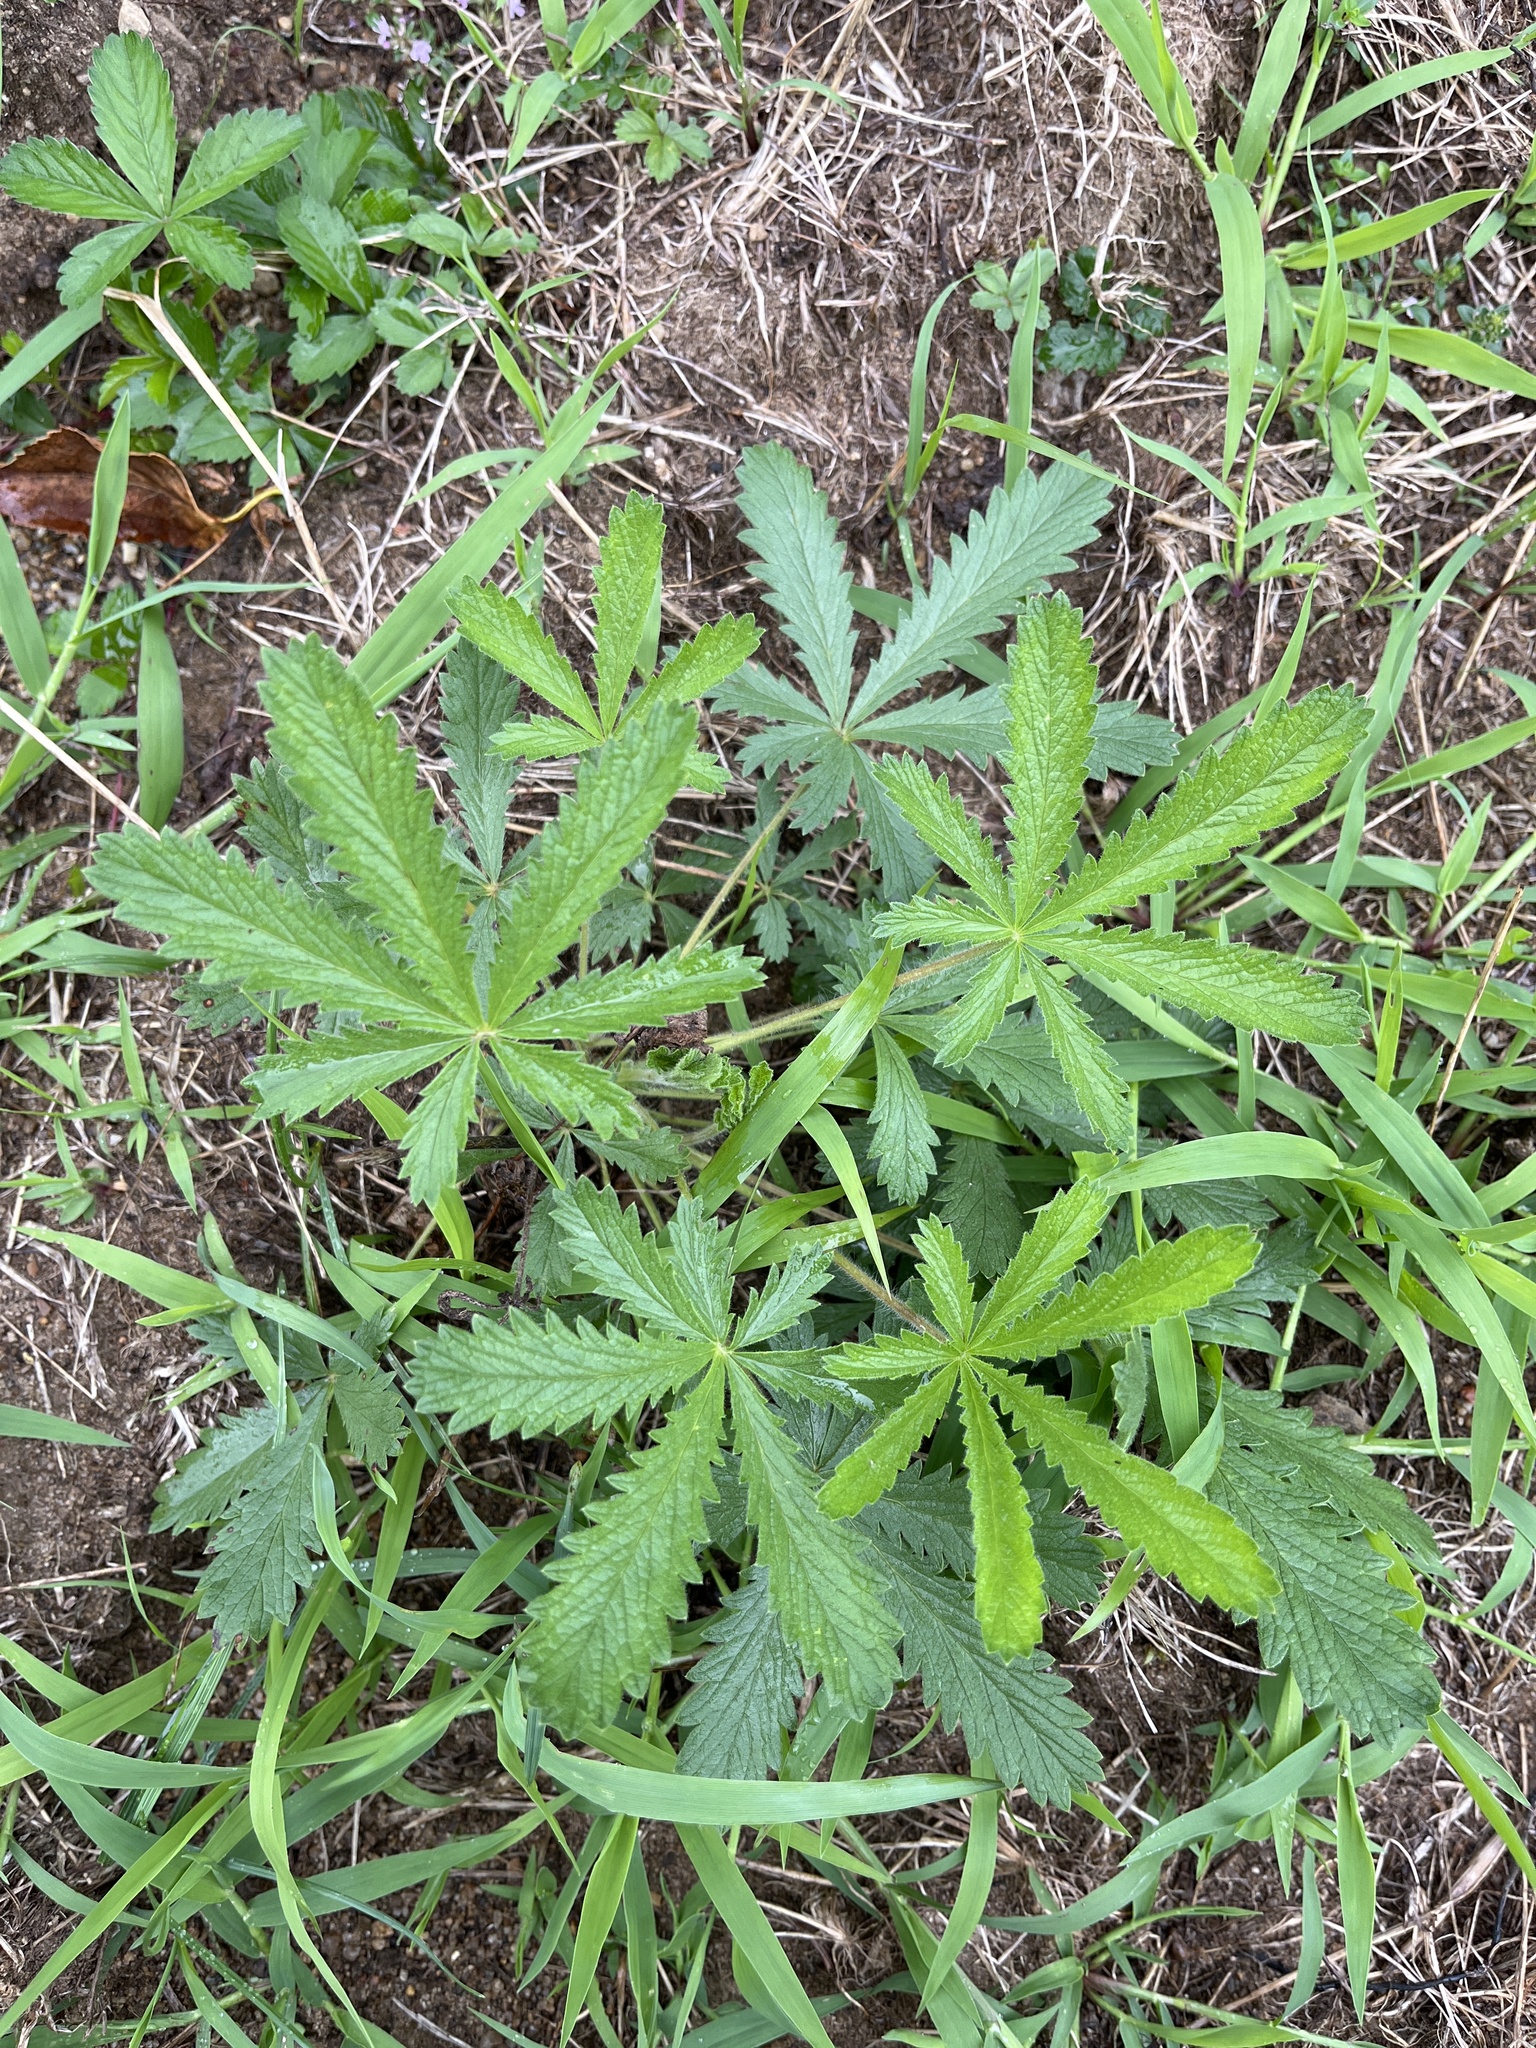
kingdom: Plantae
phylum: Tracheophyta
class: Magnoliopsida
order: Rosales
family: Rosaceae
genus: Potentilla
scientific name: Potentilla recta
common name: Sulphur cinquefoil
